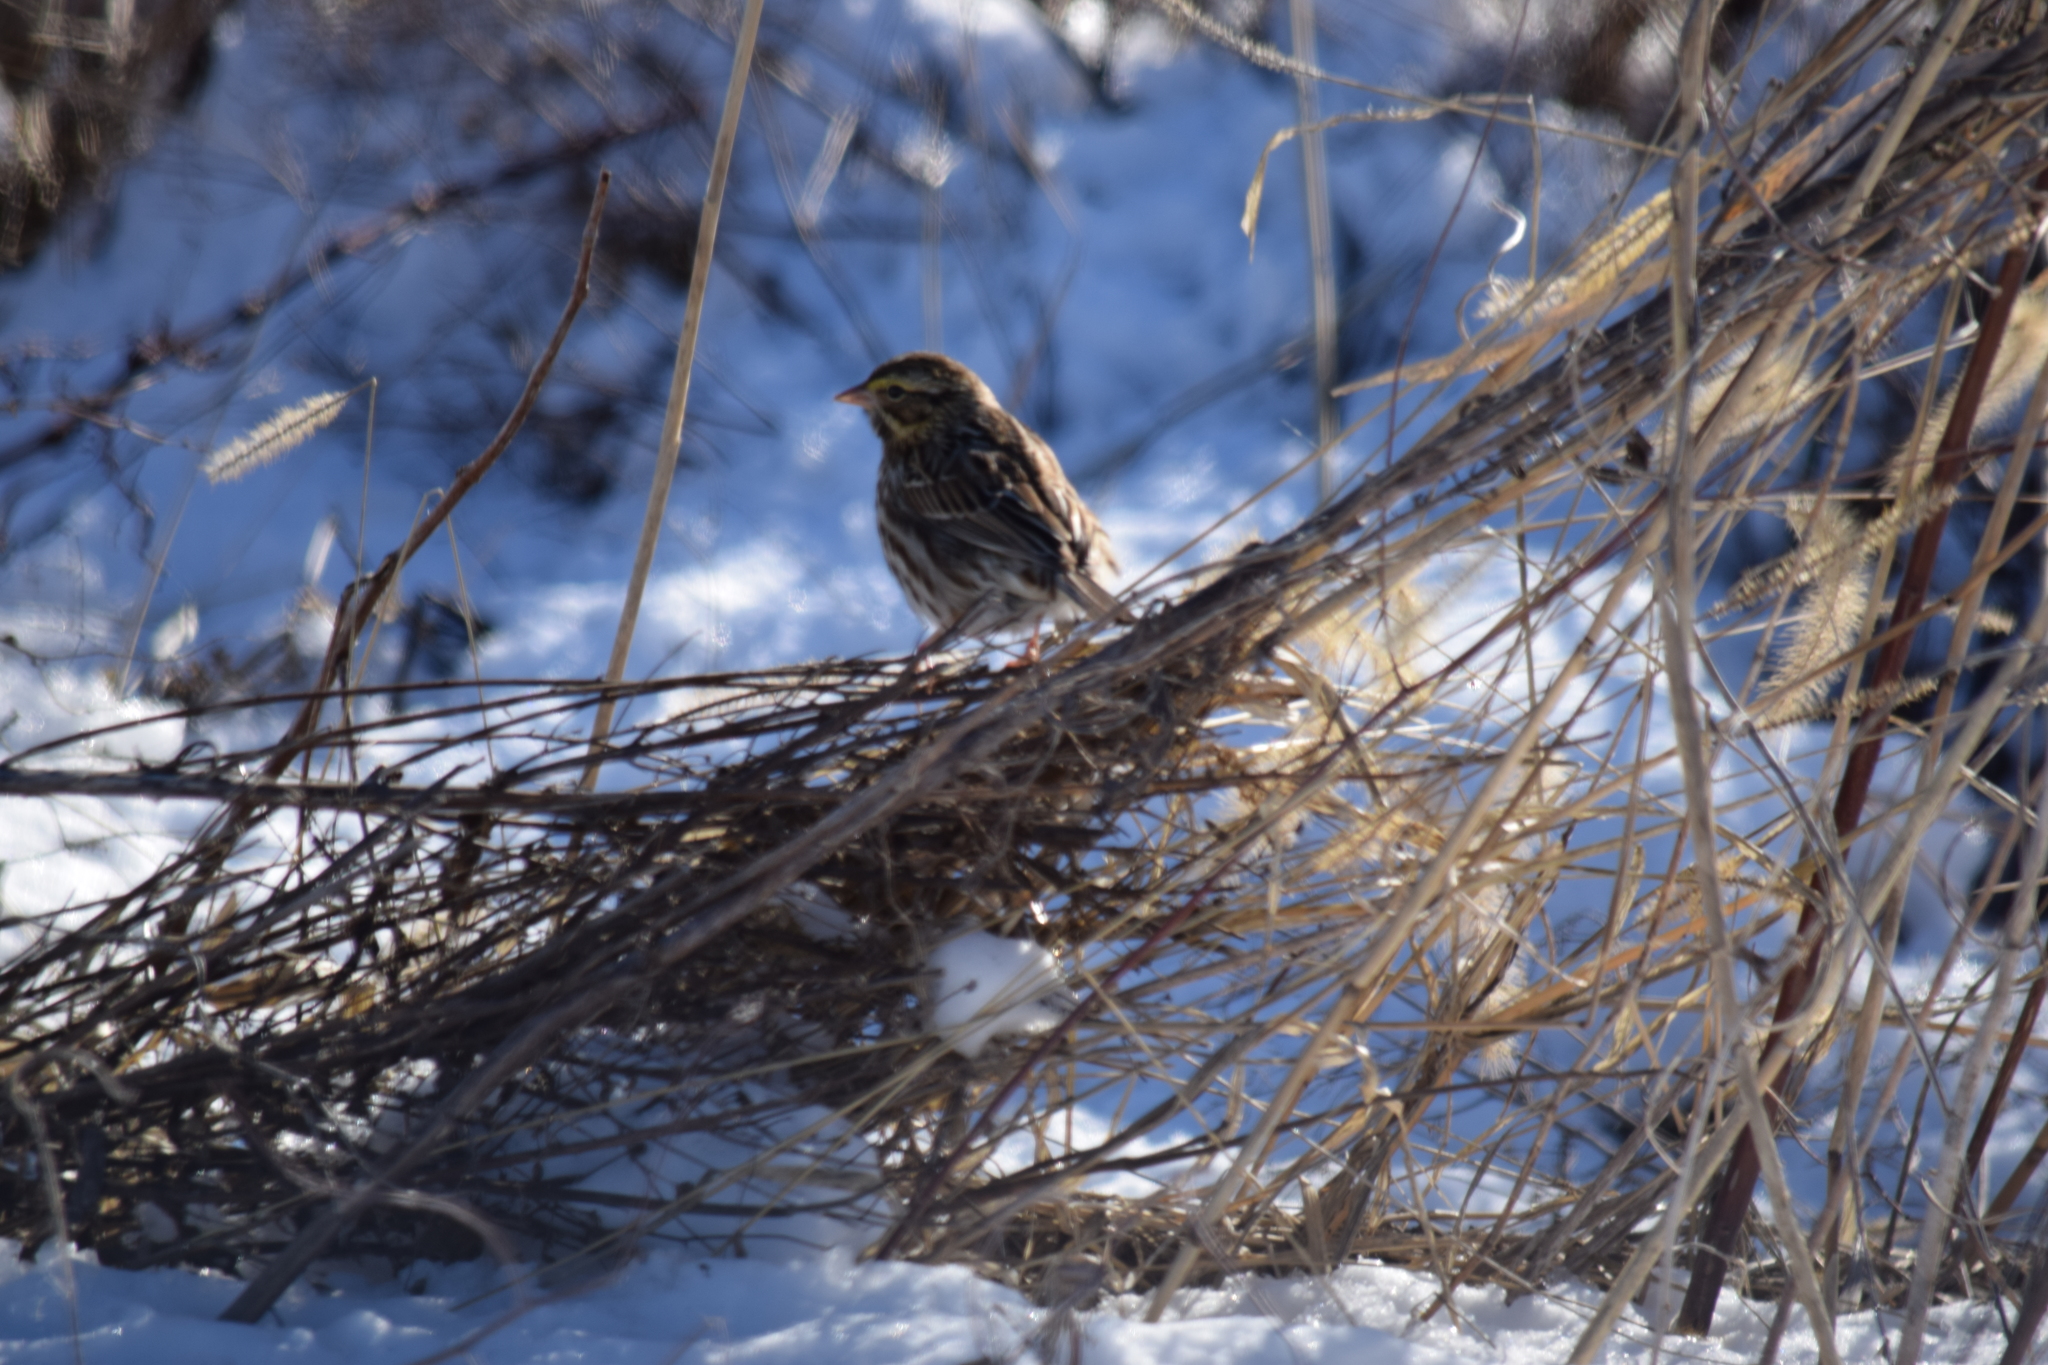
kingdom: Animalia
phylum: Chordata
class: Aves
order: Passeriformes
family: Passerellidae
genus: Passerculus
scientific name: Passerculus sandwichensis
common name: Savannah sparrow
